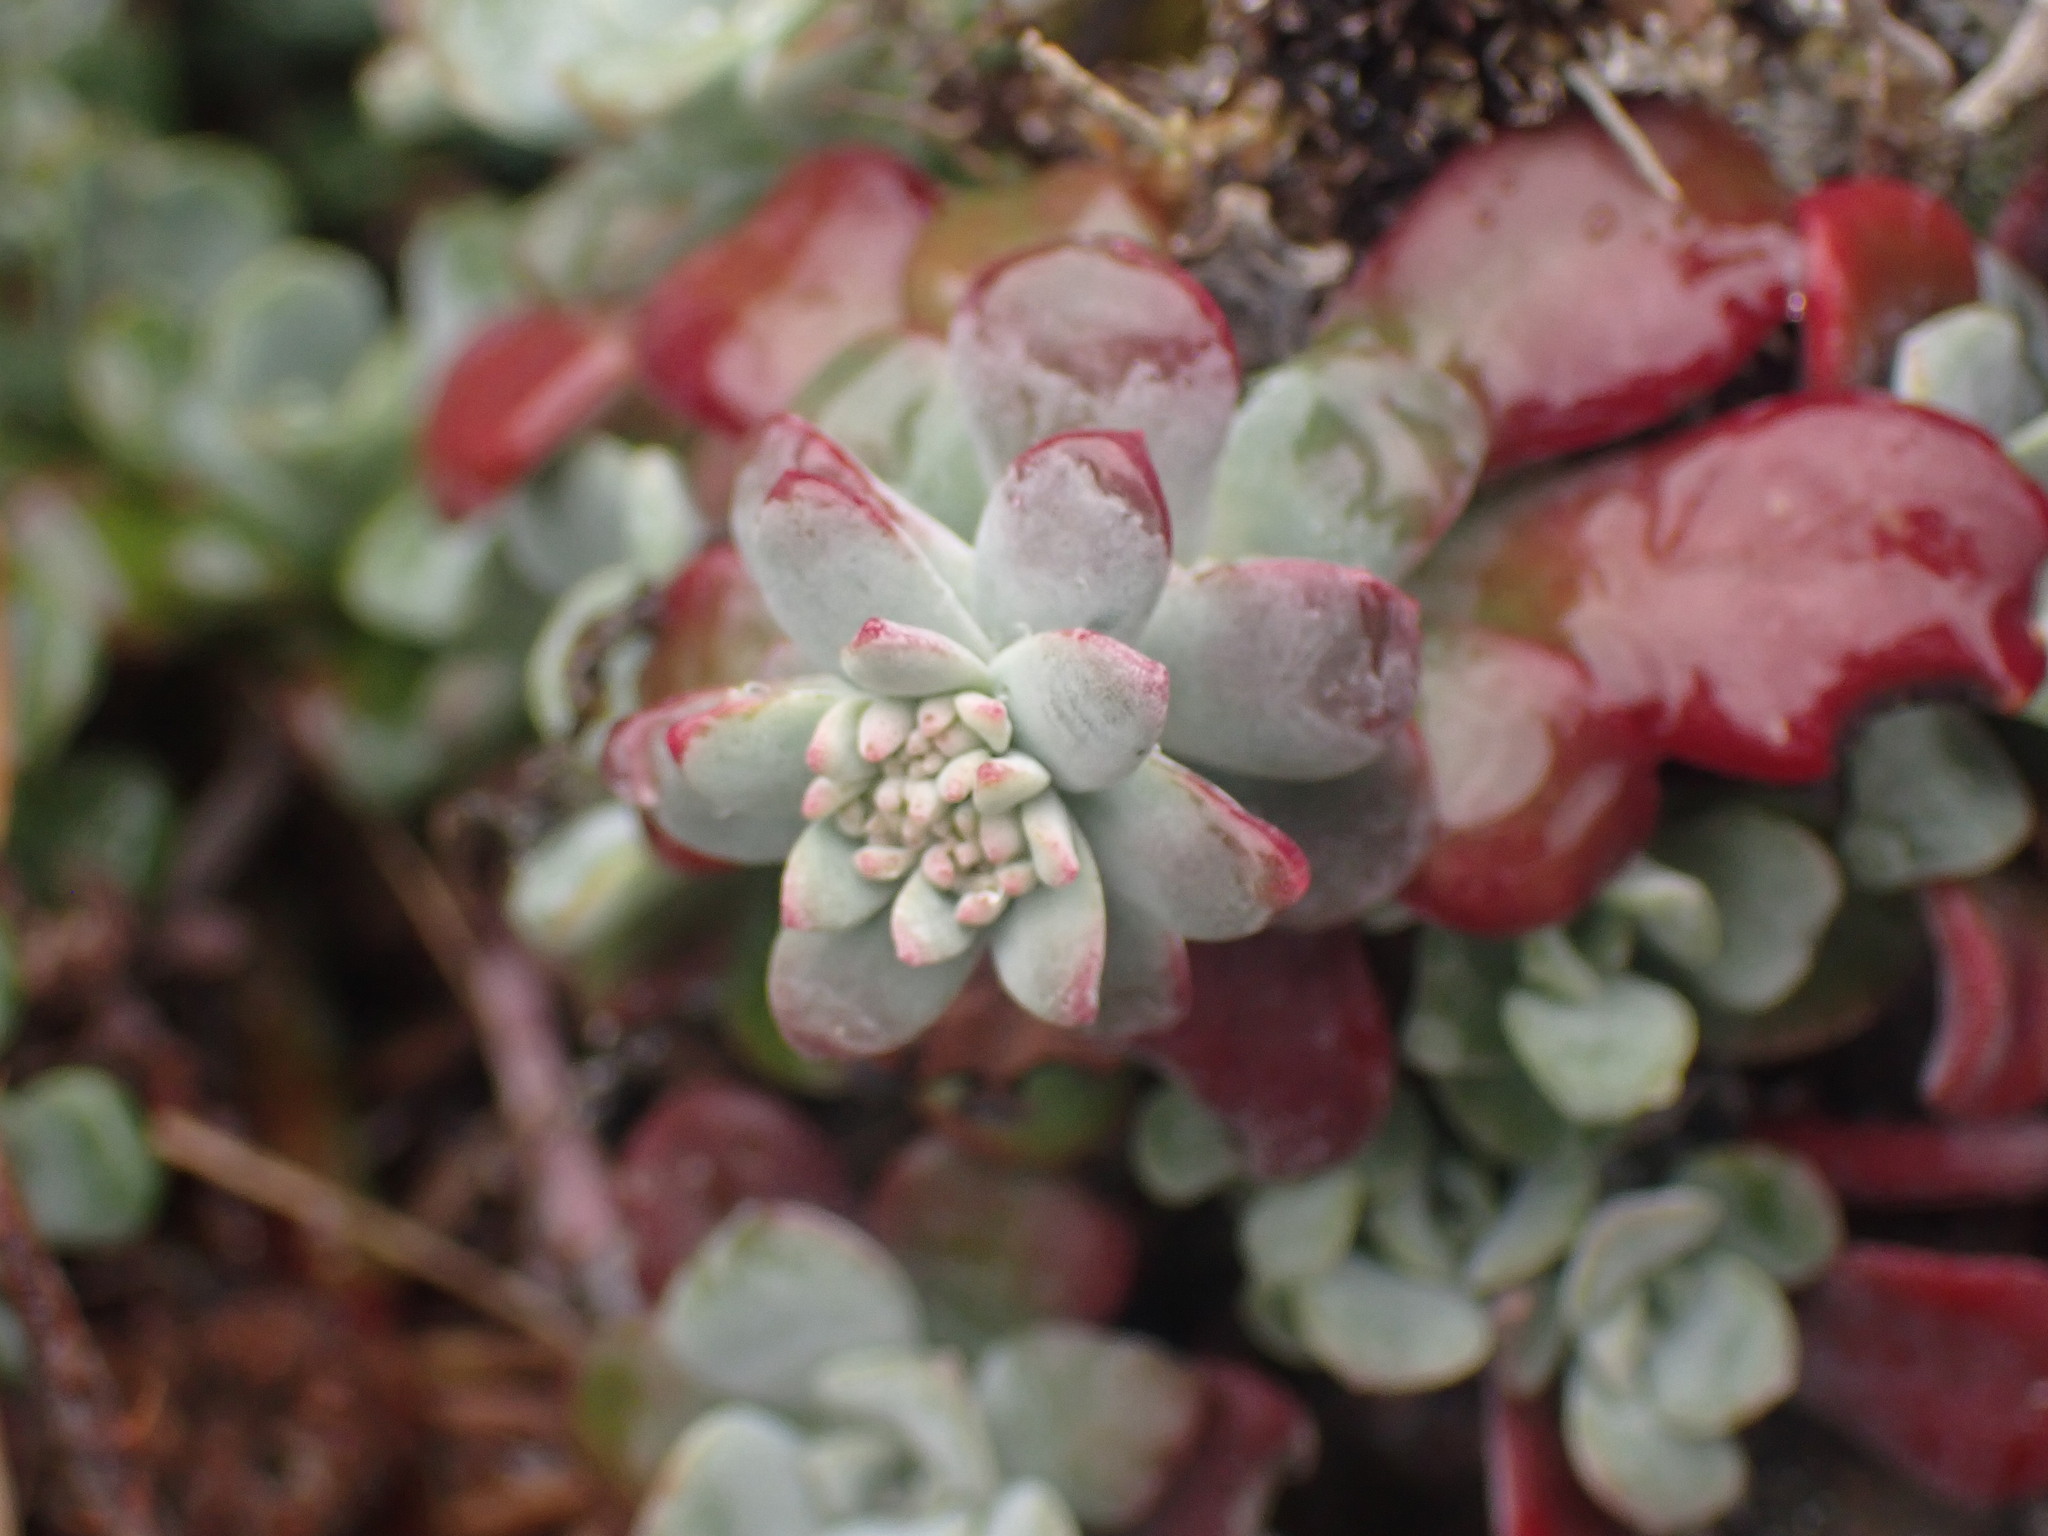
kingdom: Plantae
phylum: Tracheophyta
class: Magnoliopsida
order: Saxifragales
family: Crassulaceae
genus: Sedum
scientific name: Sedum spathulifolium
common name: Colorado stonecrop
